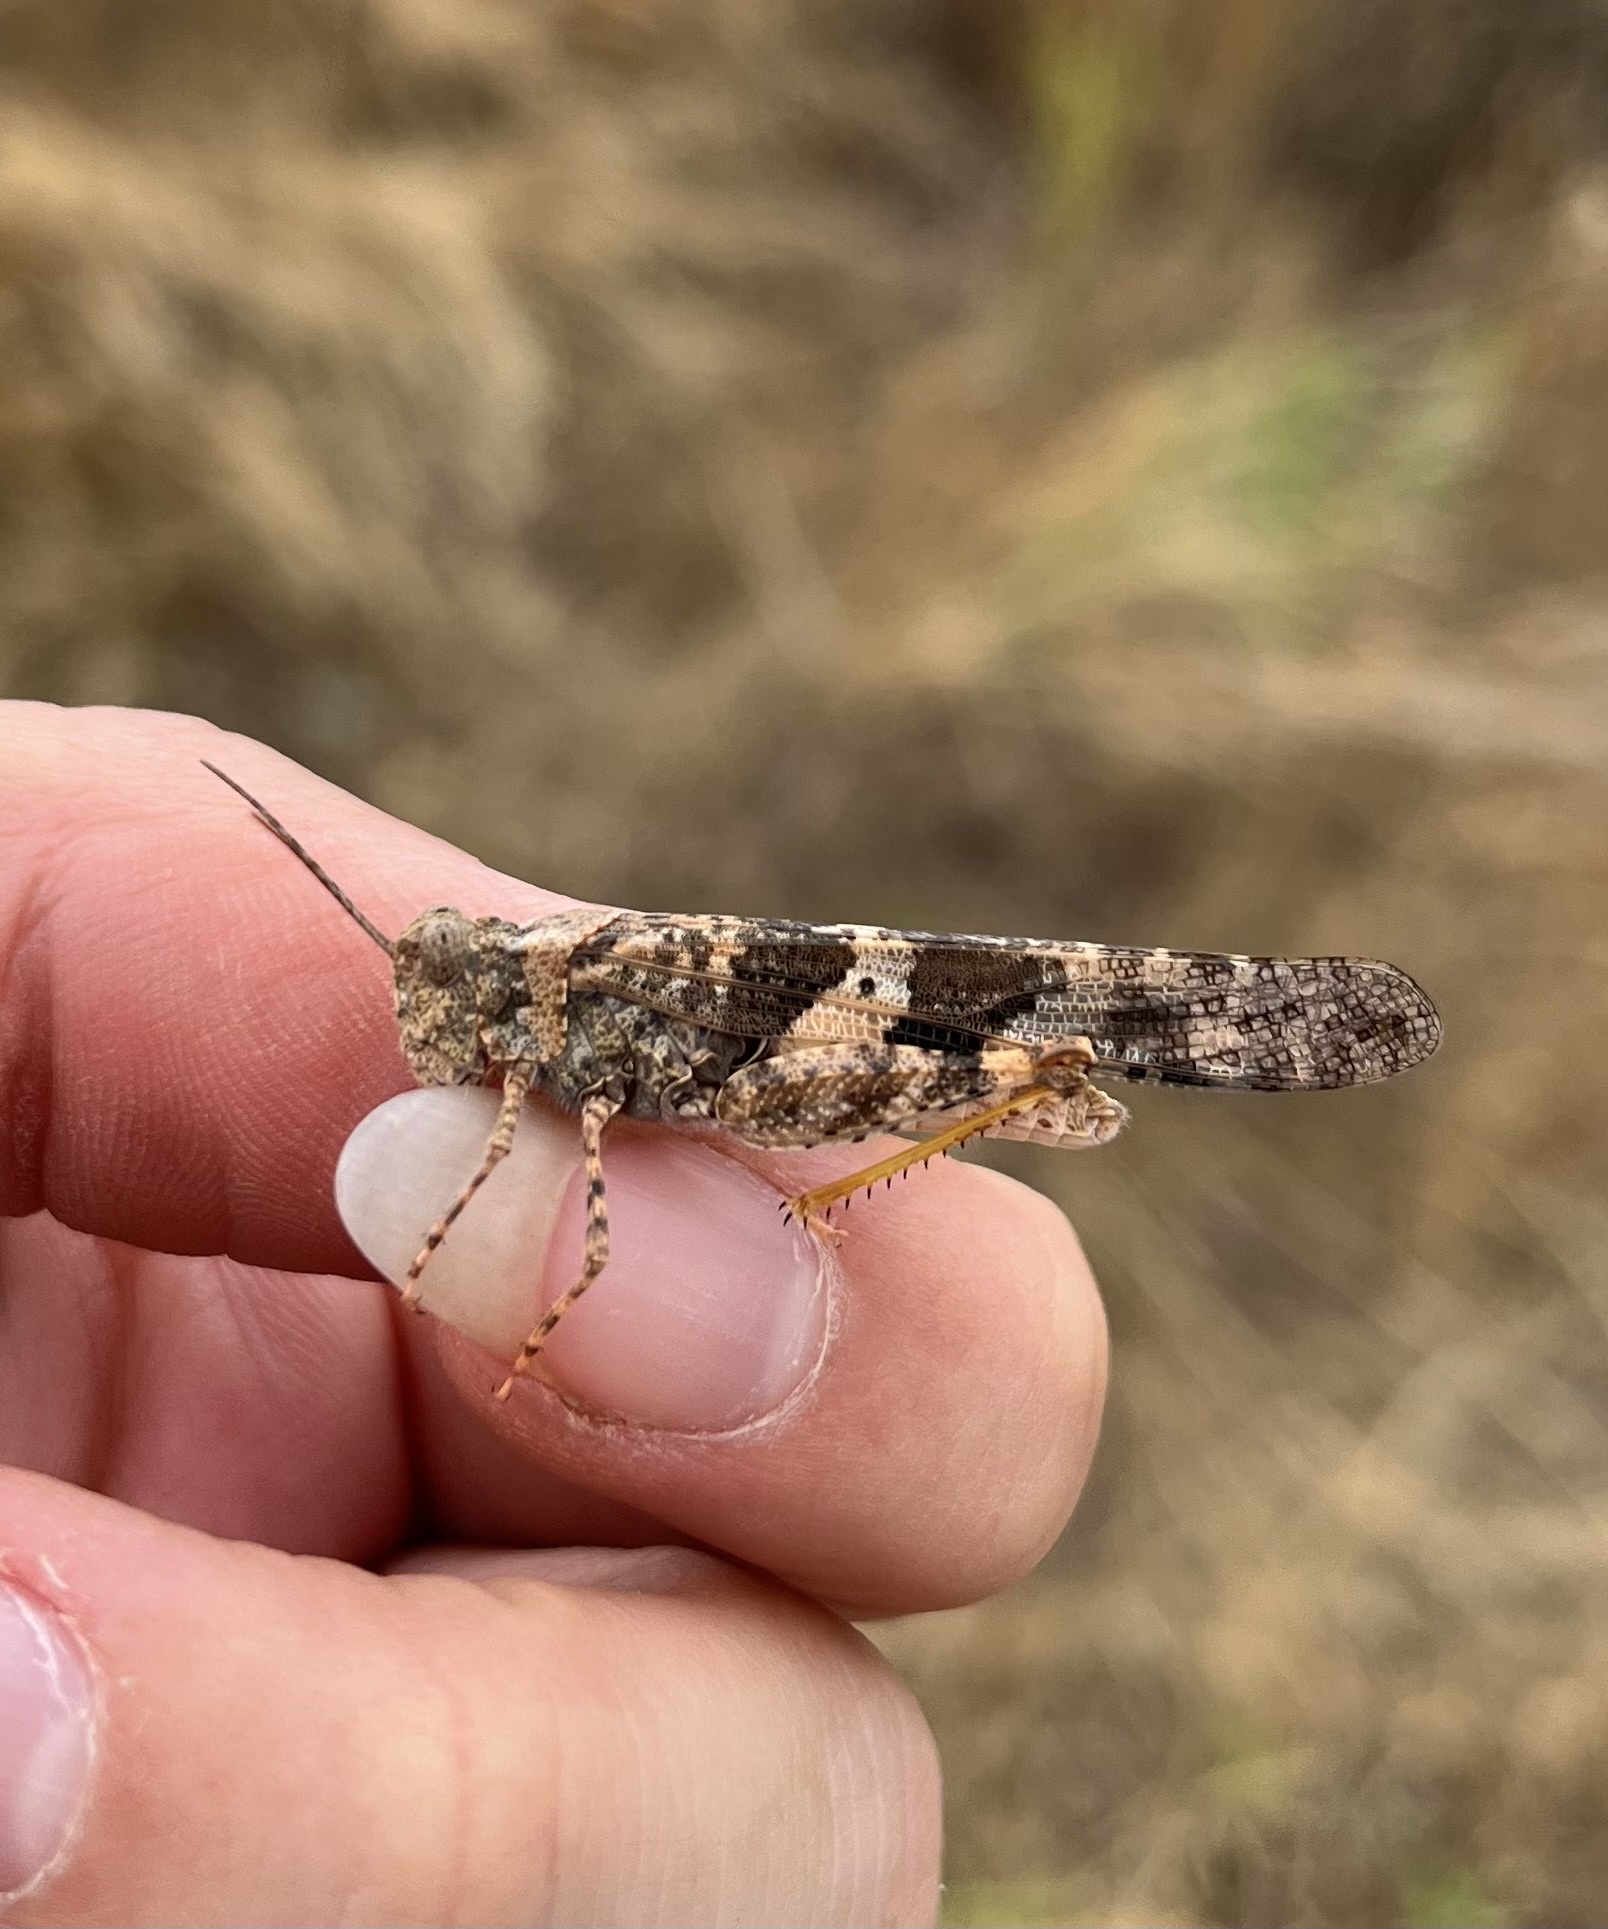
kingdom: Animalia
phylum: Arthropoda
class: Insecta
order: Orthoptera
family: Acrididae
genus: Trimerotropis
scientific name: Trimerotropis pallidipennis
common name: Pallid-winged grasshopper
